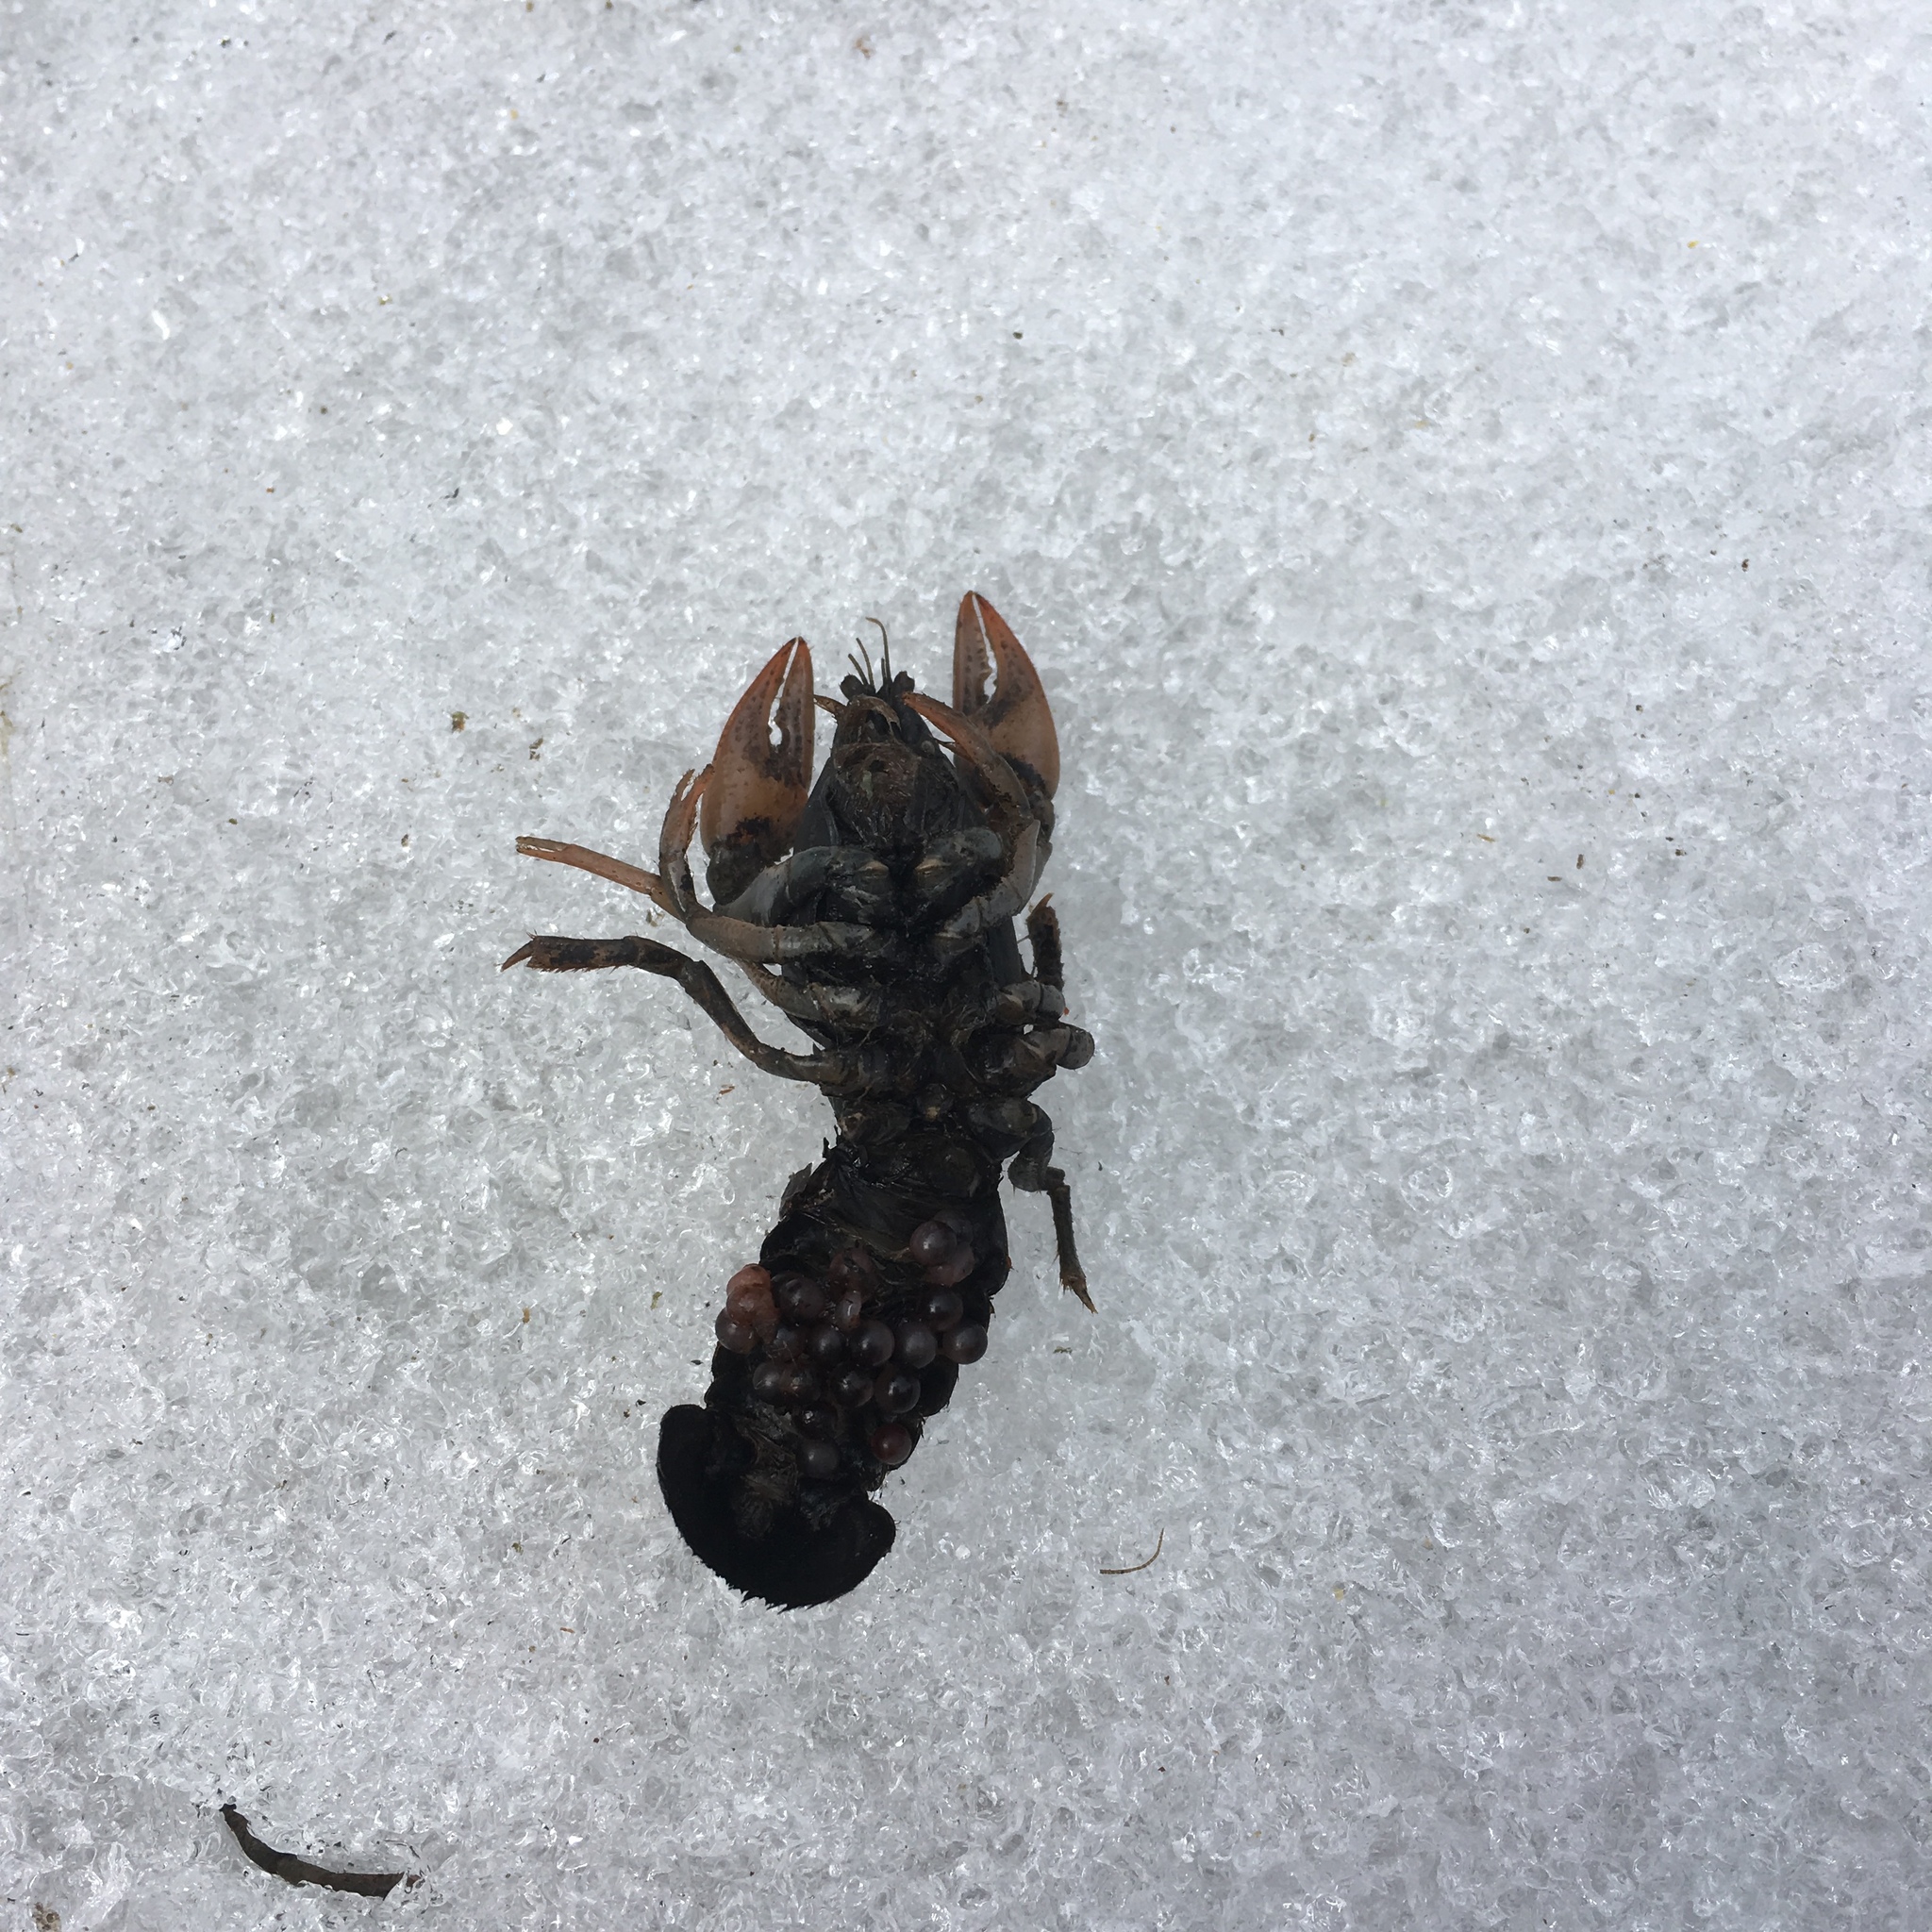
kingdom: Animalia
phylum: Arthropoda
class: Malacostraca
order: Decapoda
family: Cambaridae
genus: Creaserinus
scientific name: Creaserinus fodiens
